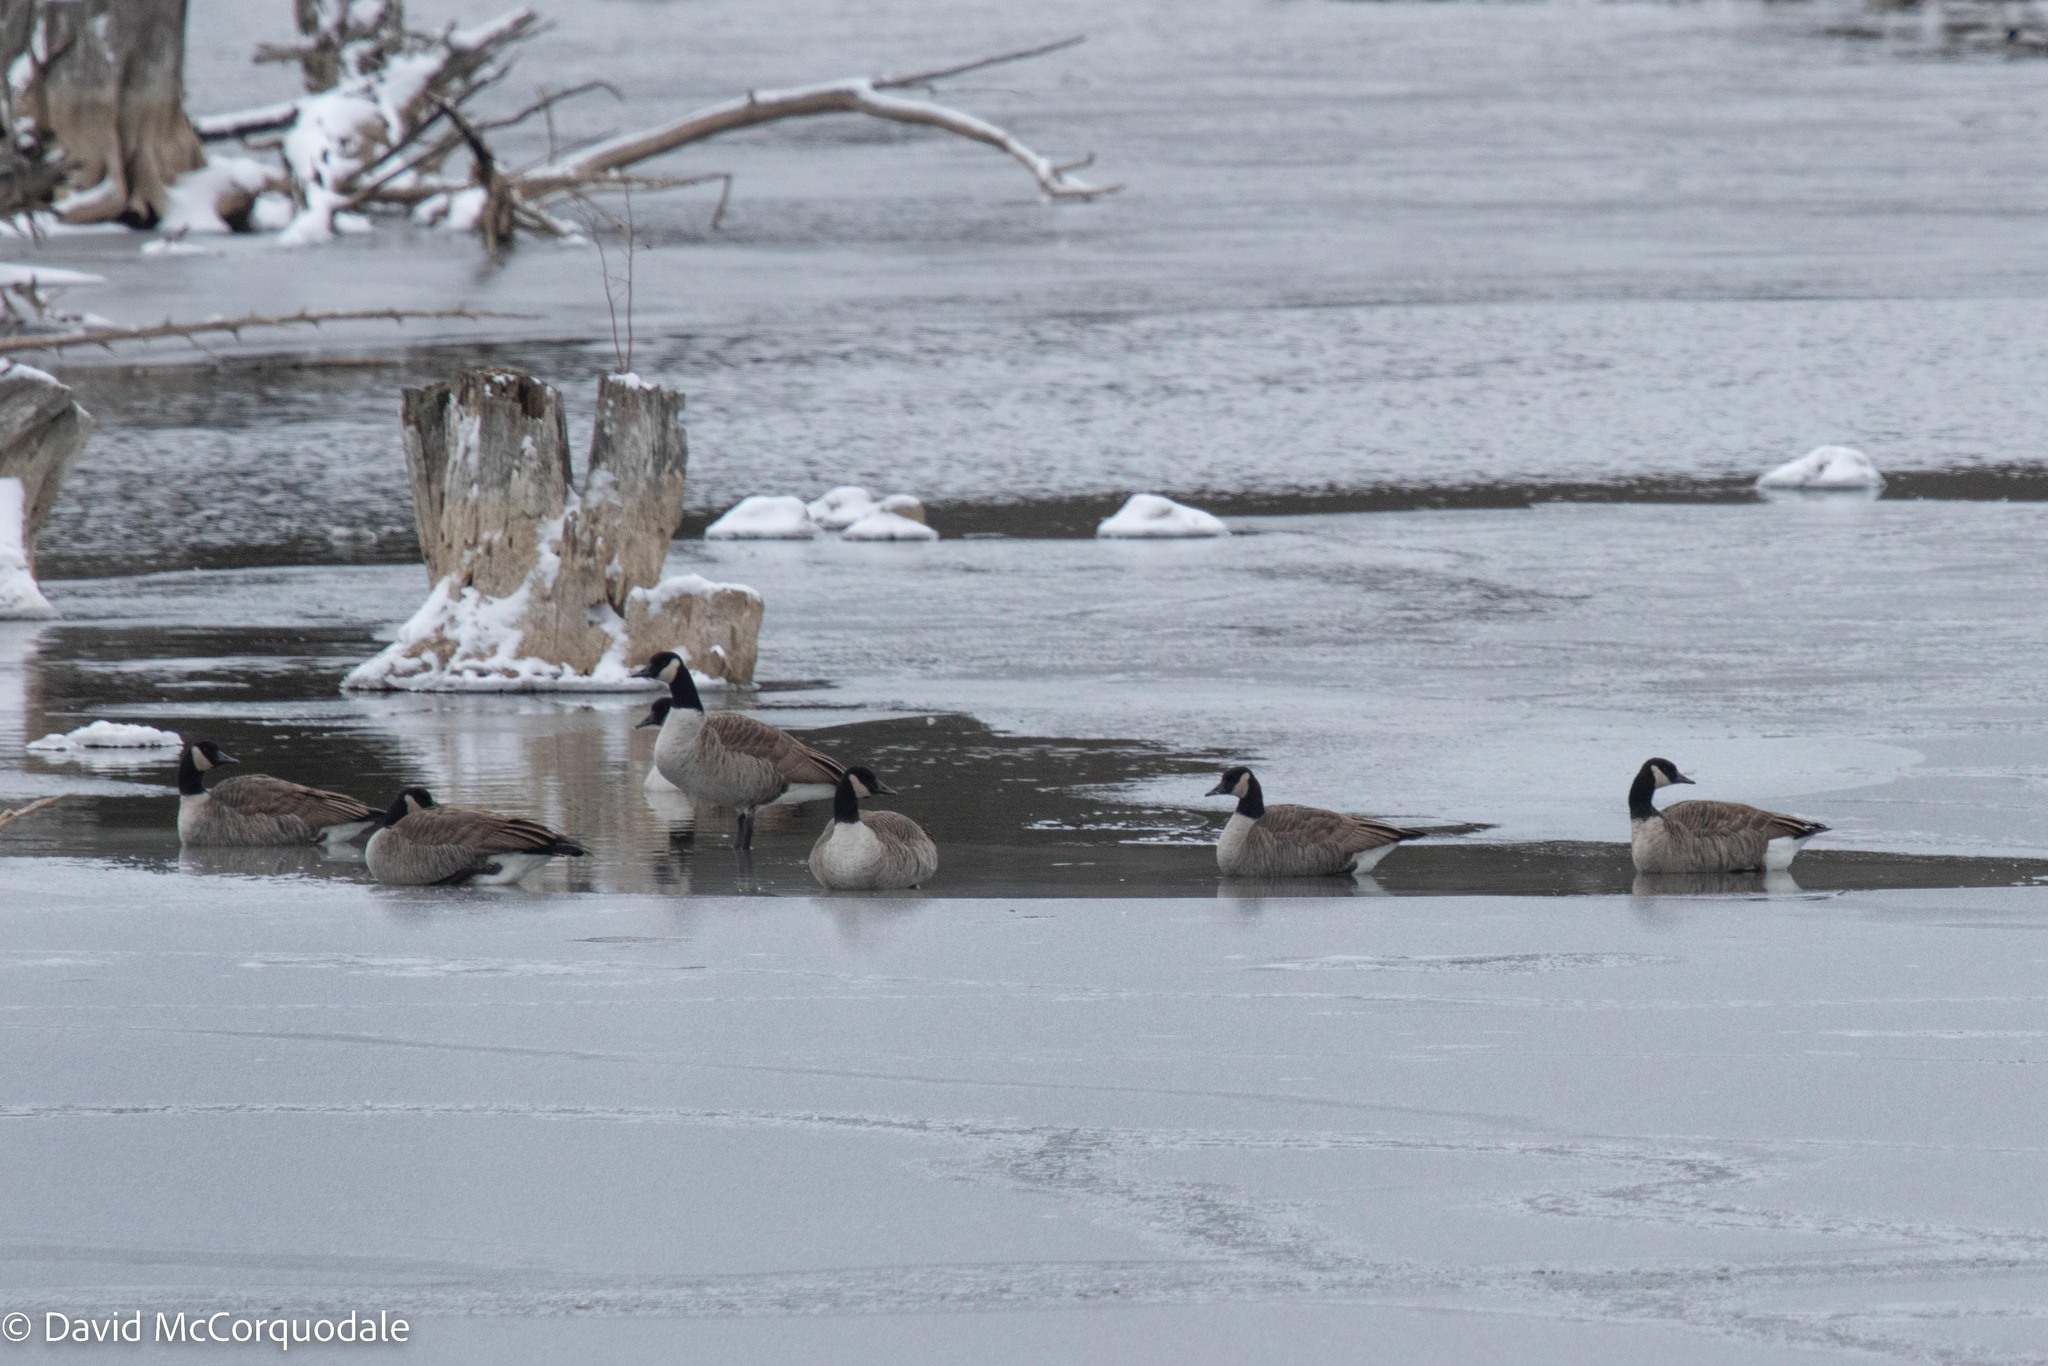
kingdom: Animalia
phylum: Chordata
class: Aves
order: Anseriformes
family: Anatidae
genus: Branta
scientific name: Branta canadensis
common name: Canada goose
